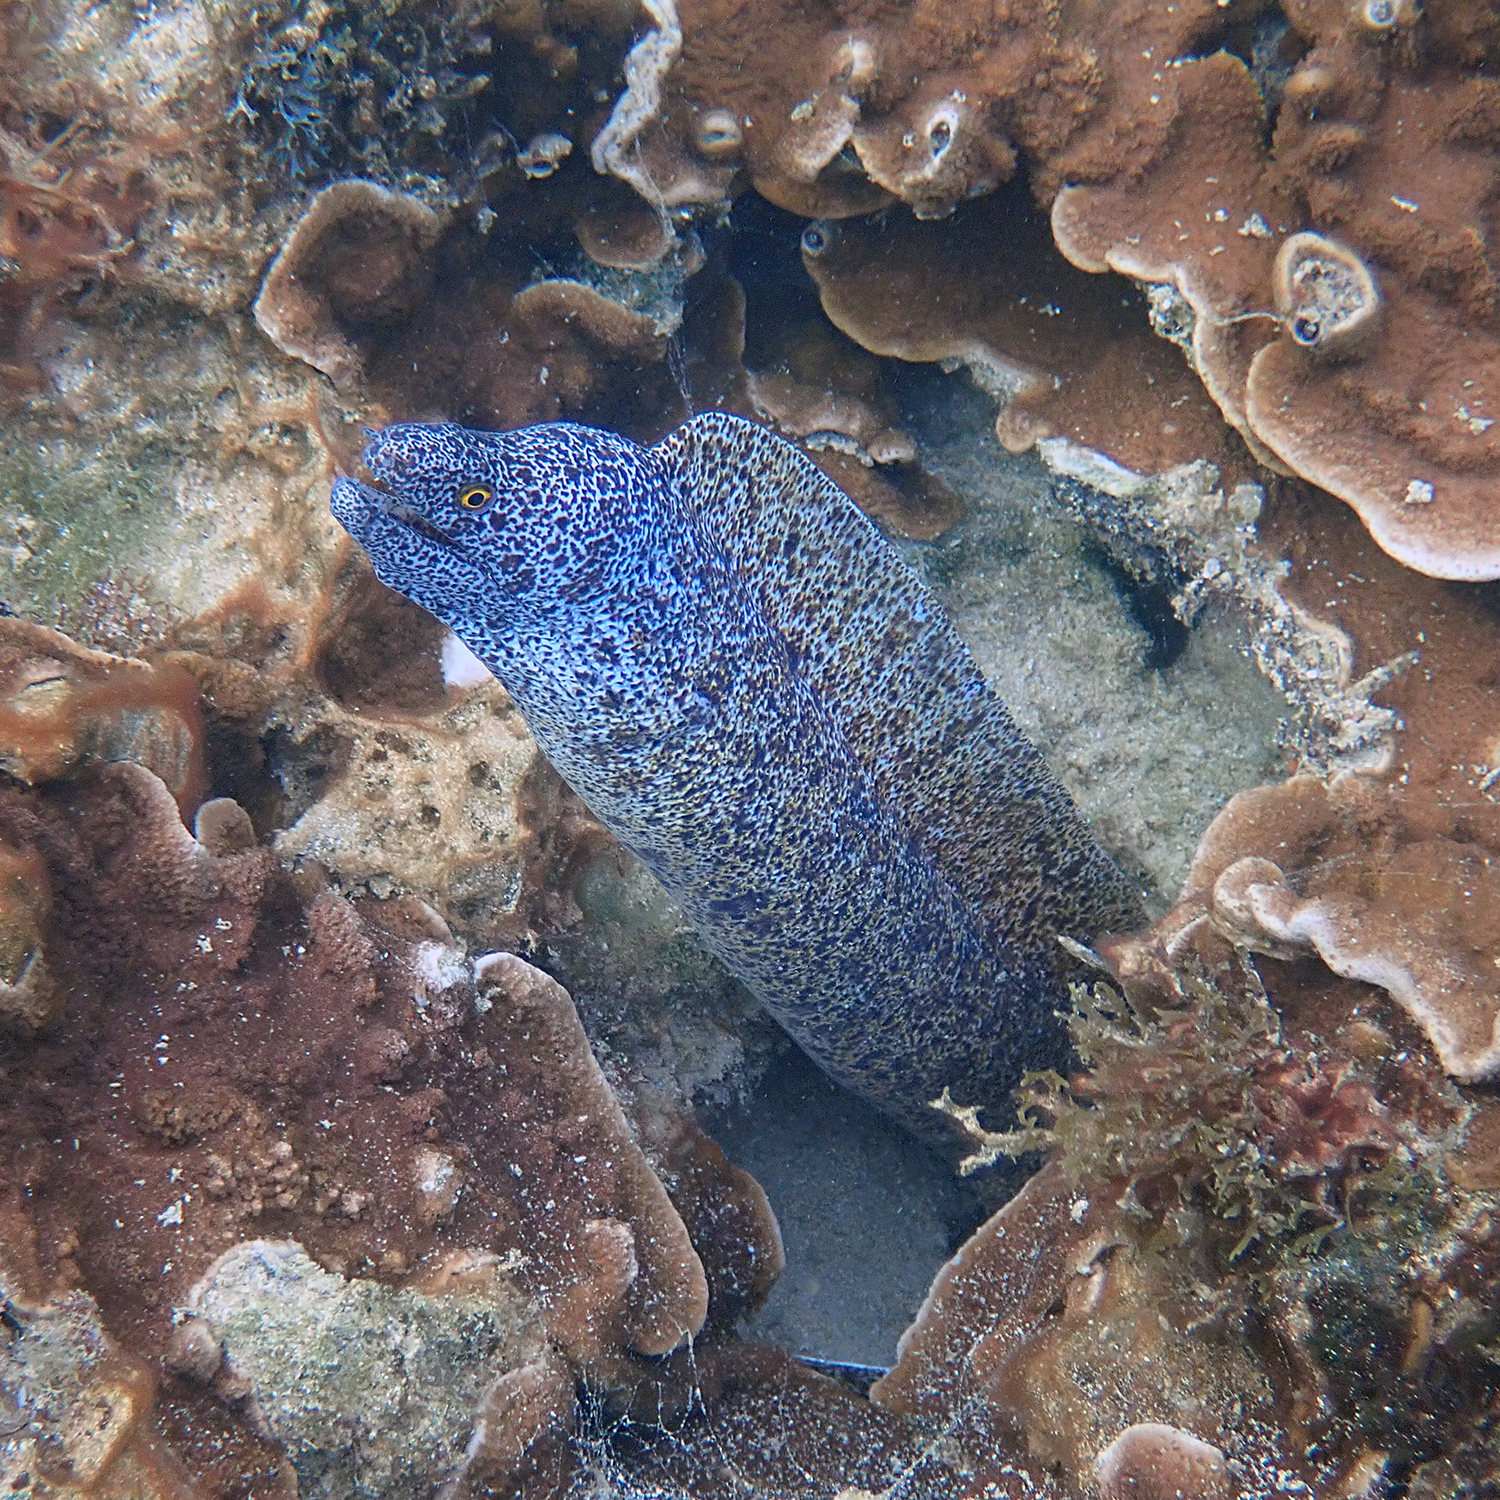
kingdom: Animalia
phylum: Chordata
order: Anguilliformes
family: Muraenidae
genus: Gymnothorax
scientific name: Gymnothorax annasona
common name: Lord howe island moray
